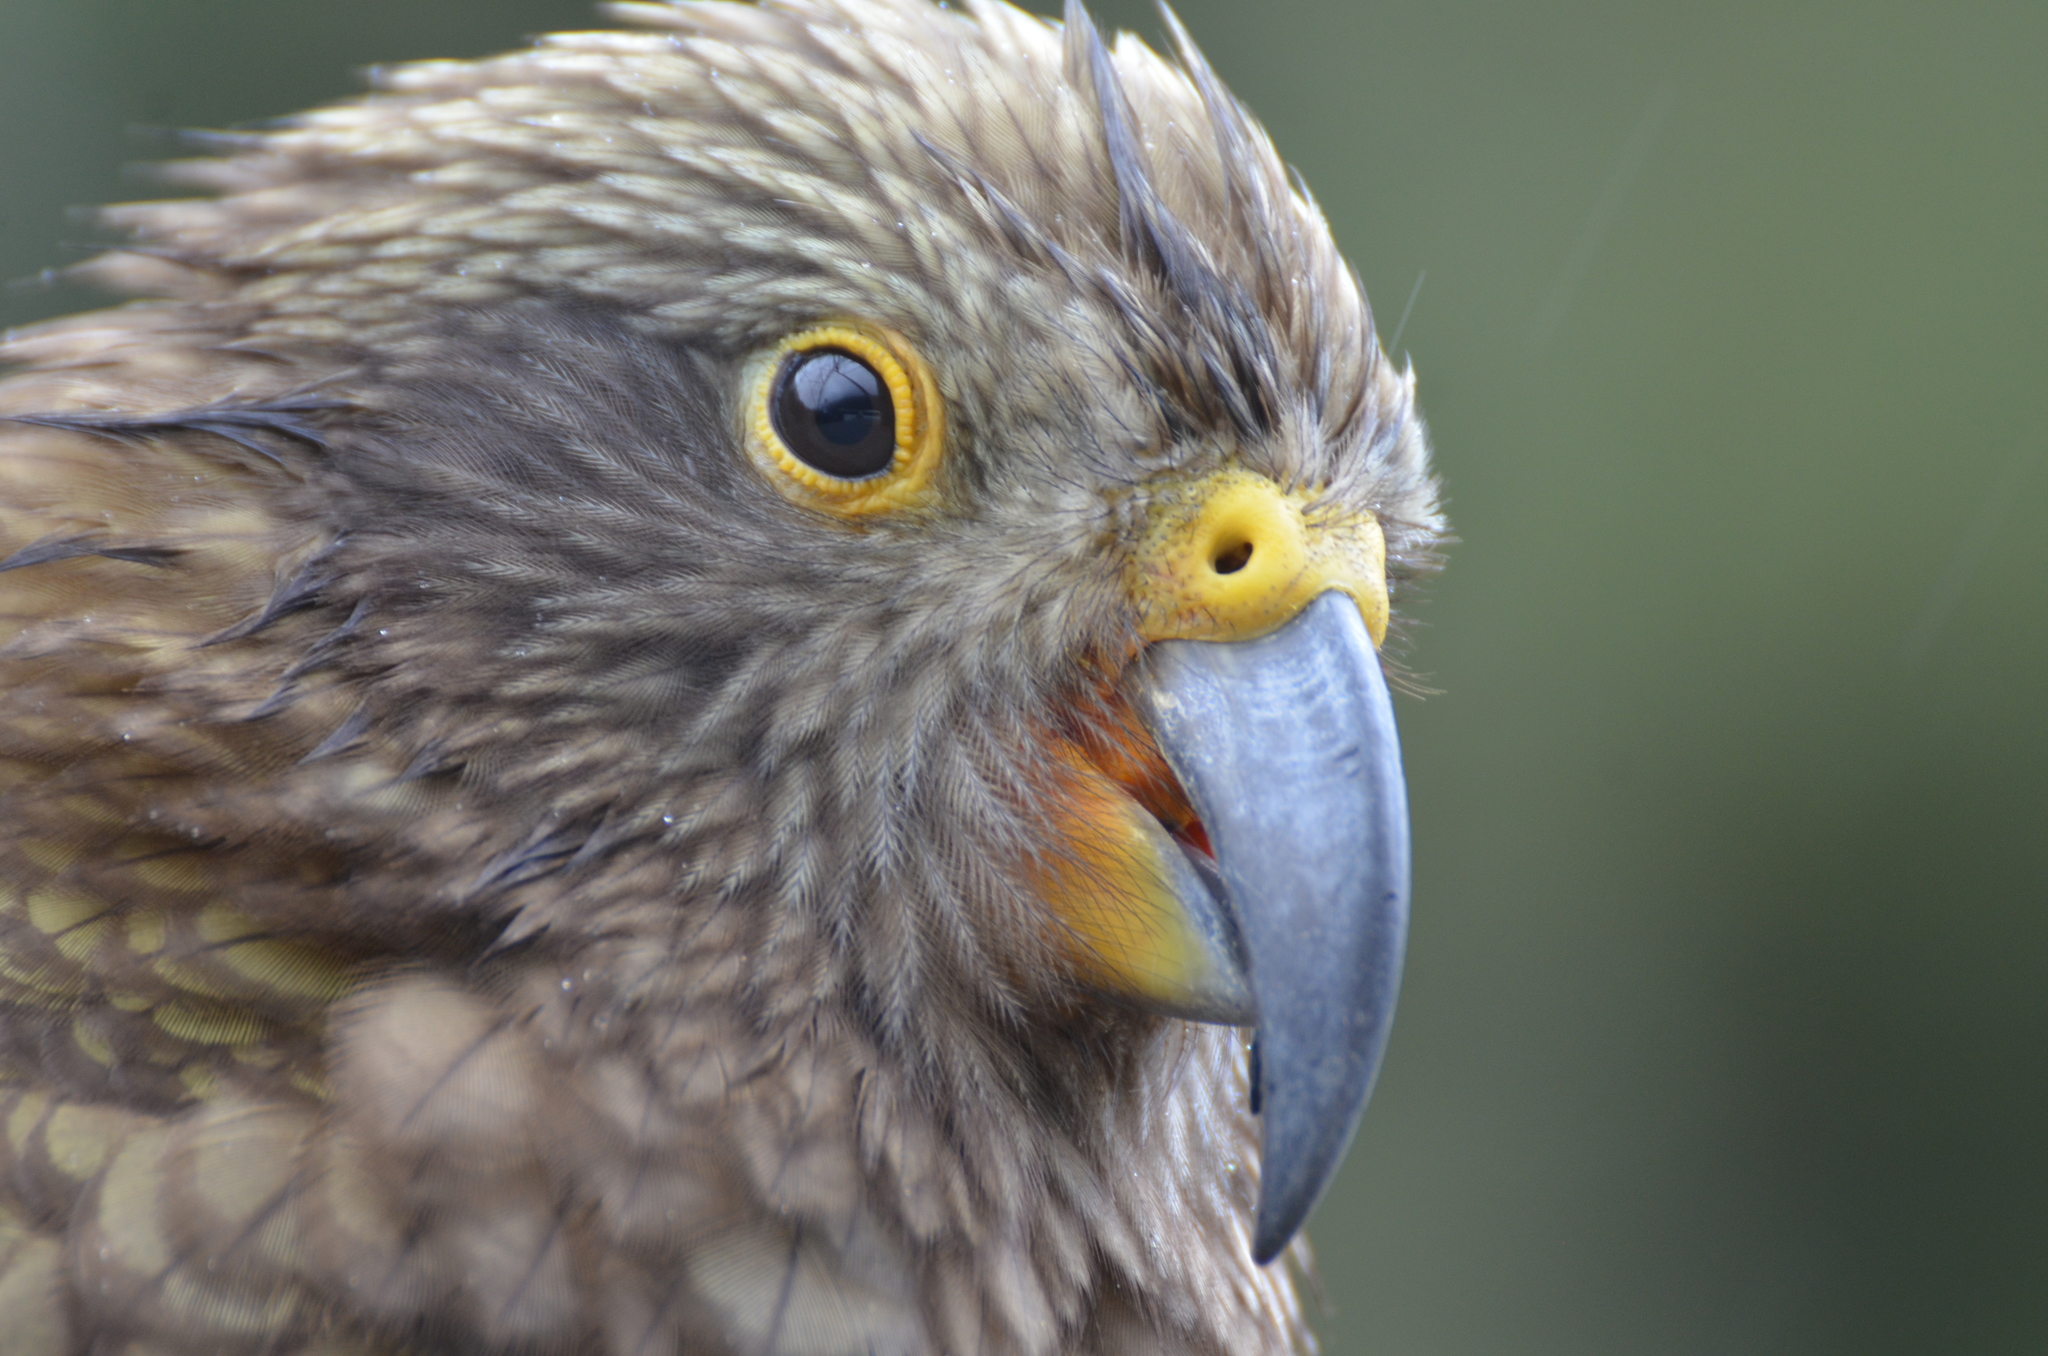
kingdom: Animalia
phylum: Chordata
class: Aves
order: Psittaciformes
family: Psittacidae
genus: Nestor
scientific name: Nestor notabilis
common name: Kea
